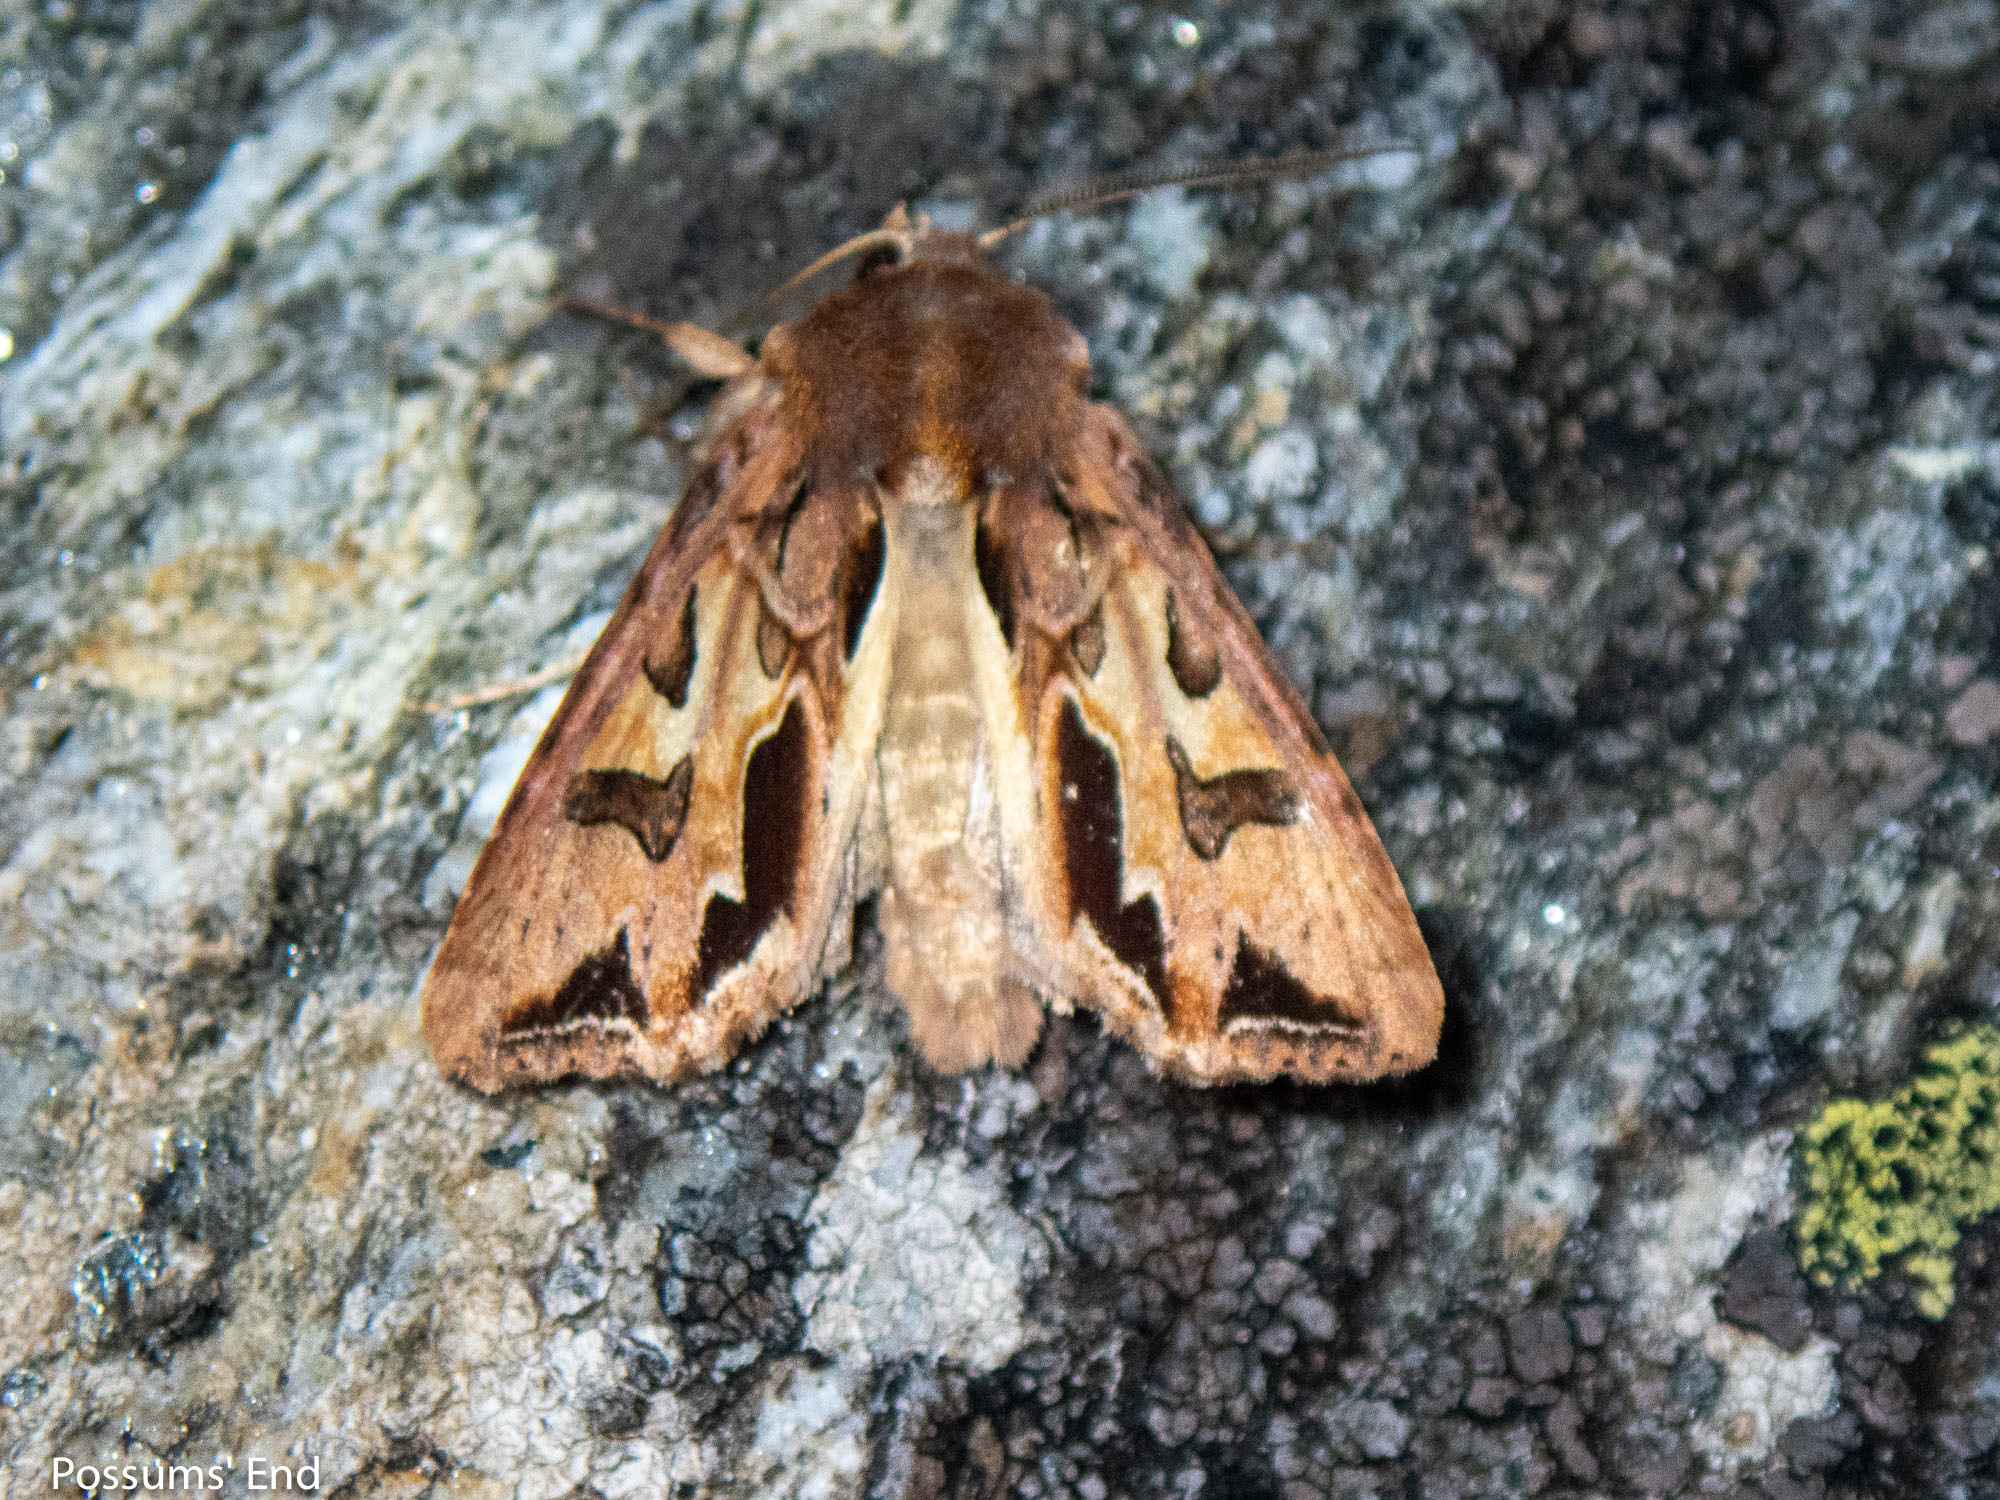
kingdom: Animalia
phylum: Arthropoda
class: Insecta
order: Lepidoptera
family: Noctuidae
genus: Ichneutica
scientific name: Ichneutica
